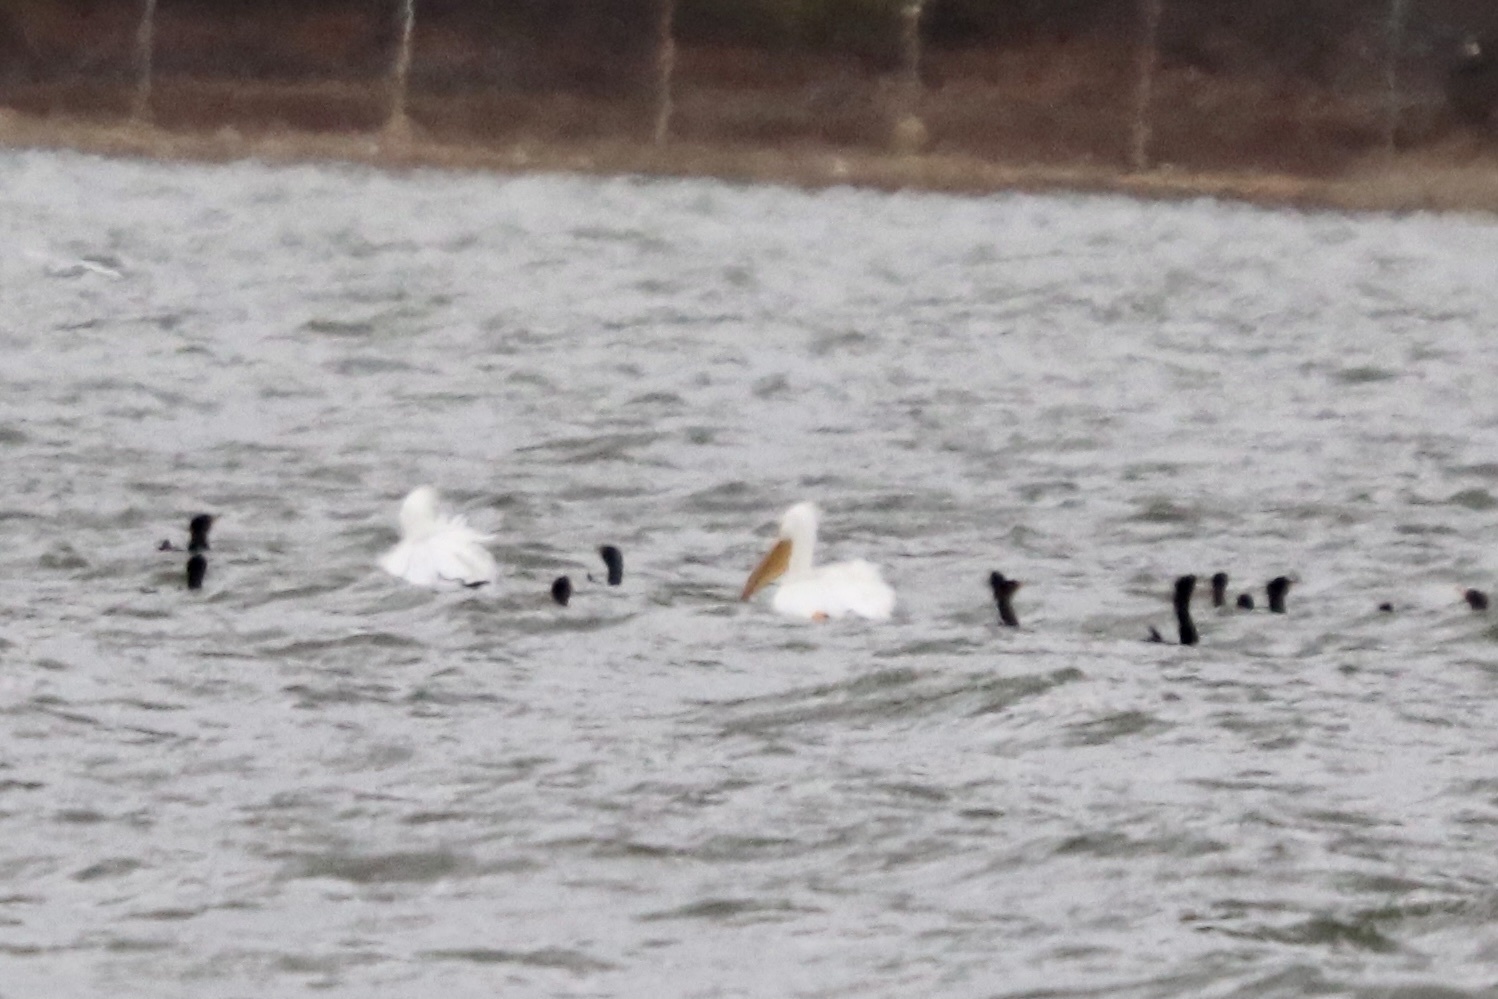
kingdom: Animalia
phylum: Chordata
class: Aves
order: Pelecaniformes
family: Pelecanidae
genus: Pelecanus
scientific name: Pelecanus erythrorhynchos
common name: American white pelican
